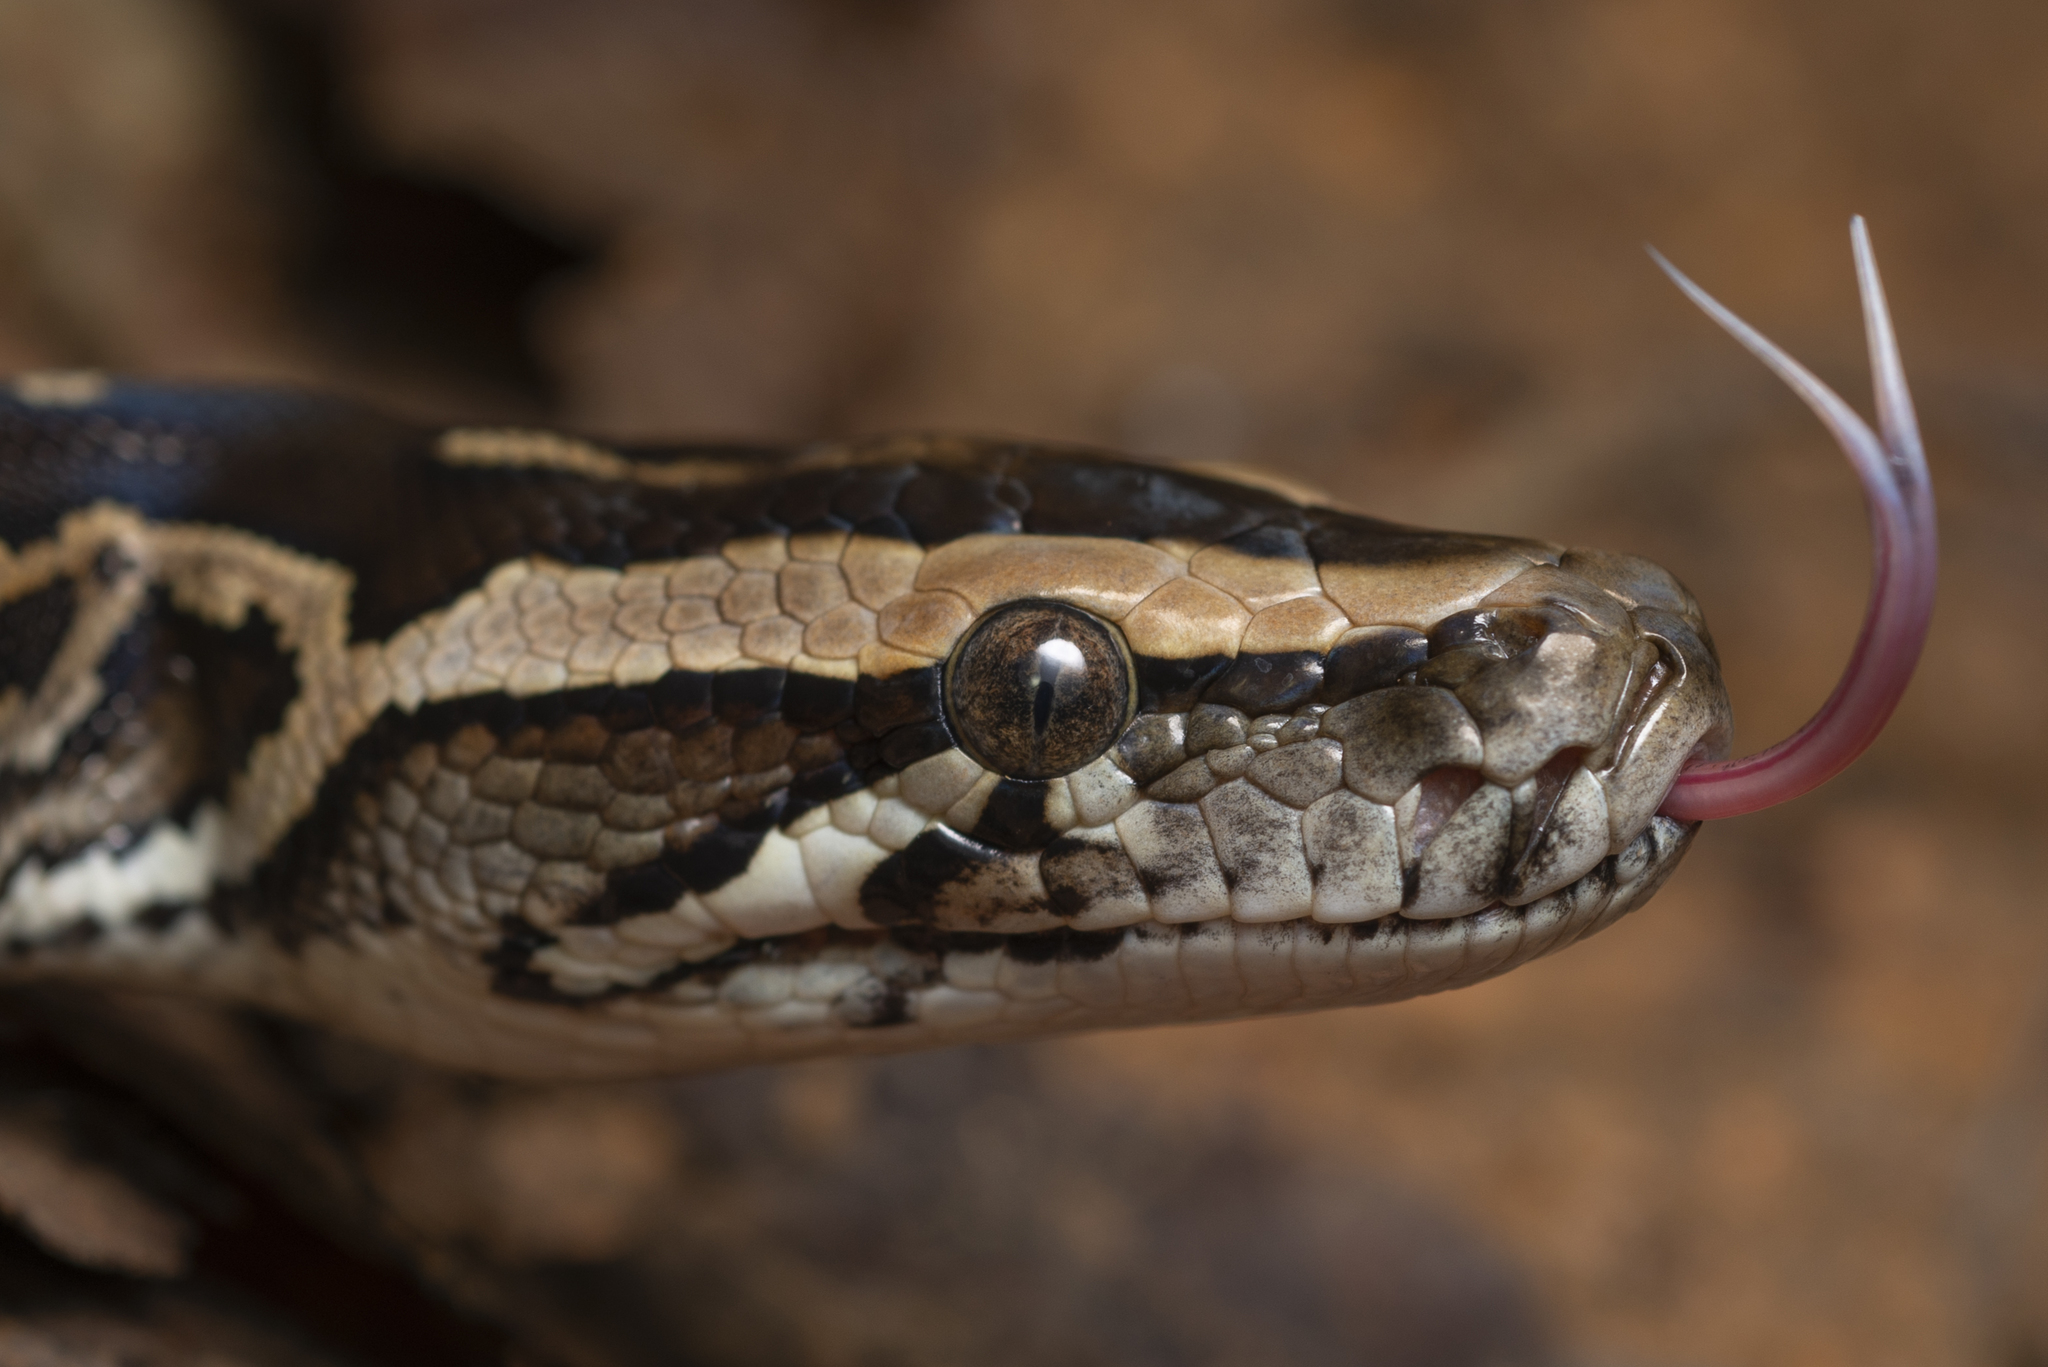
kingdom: Animalia
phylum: Chordata
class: Squamata
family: Pythonidae
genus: Python
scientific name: Python bivittatus
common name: Burmese python
